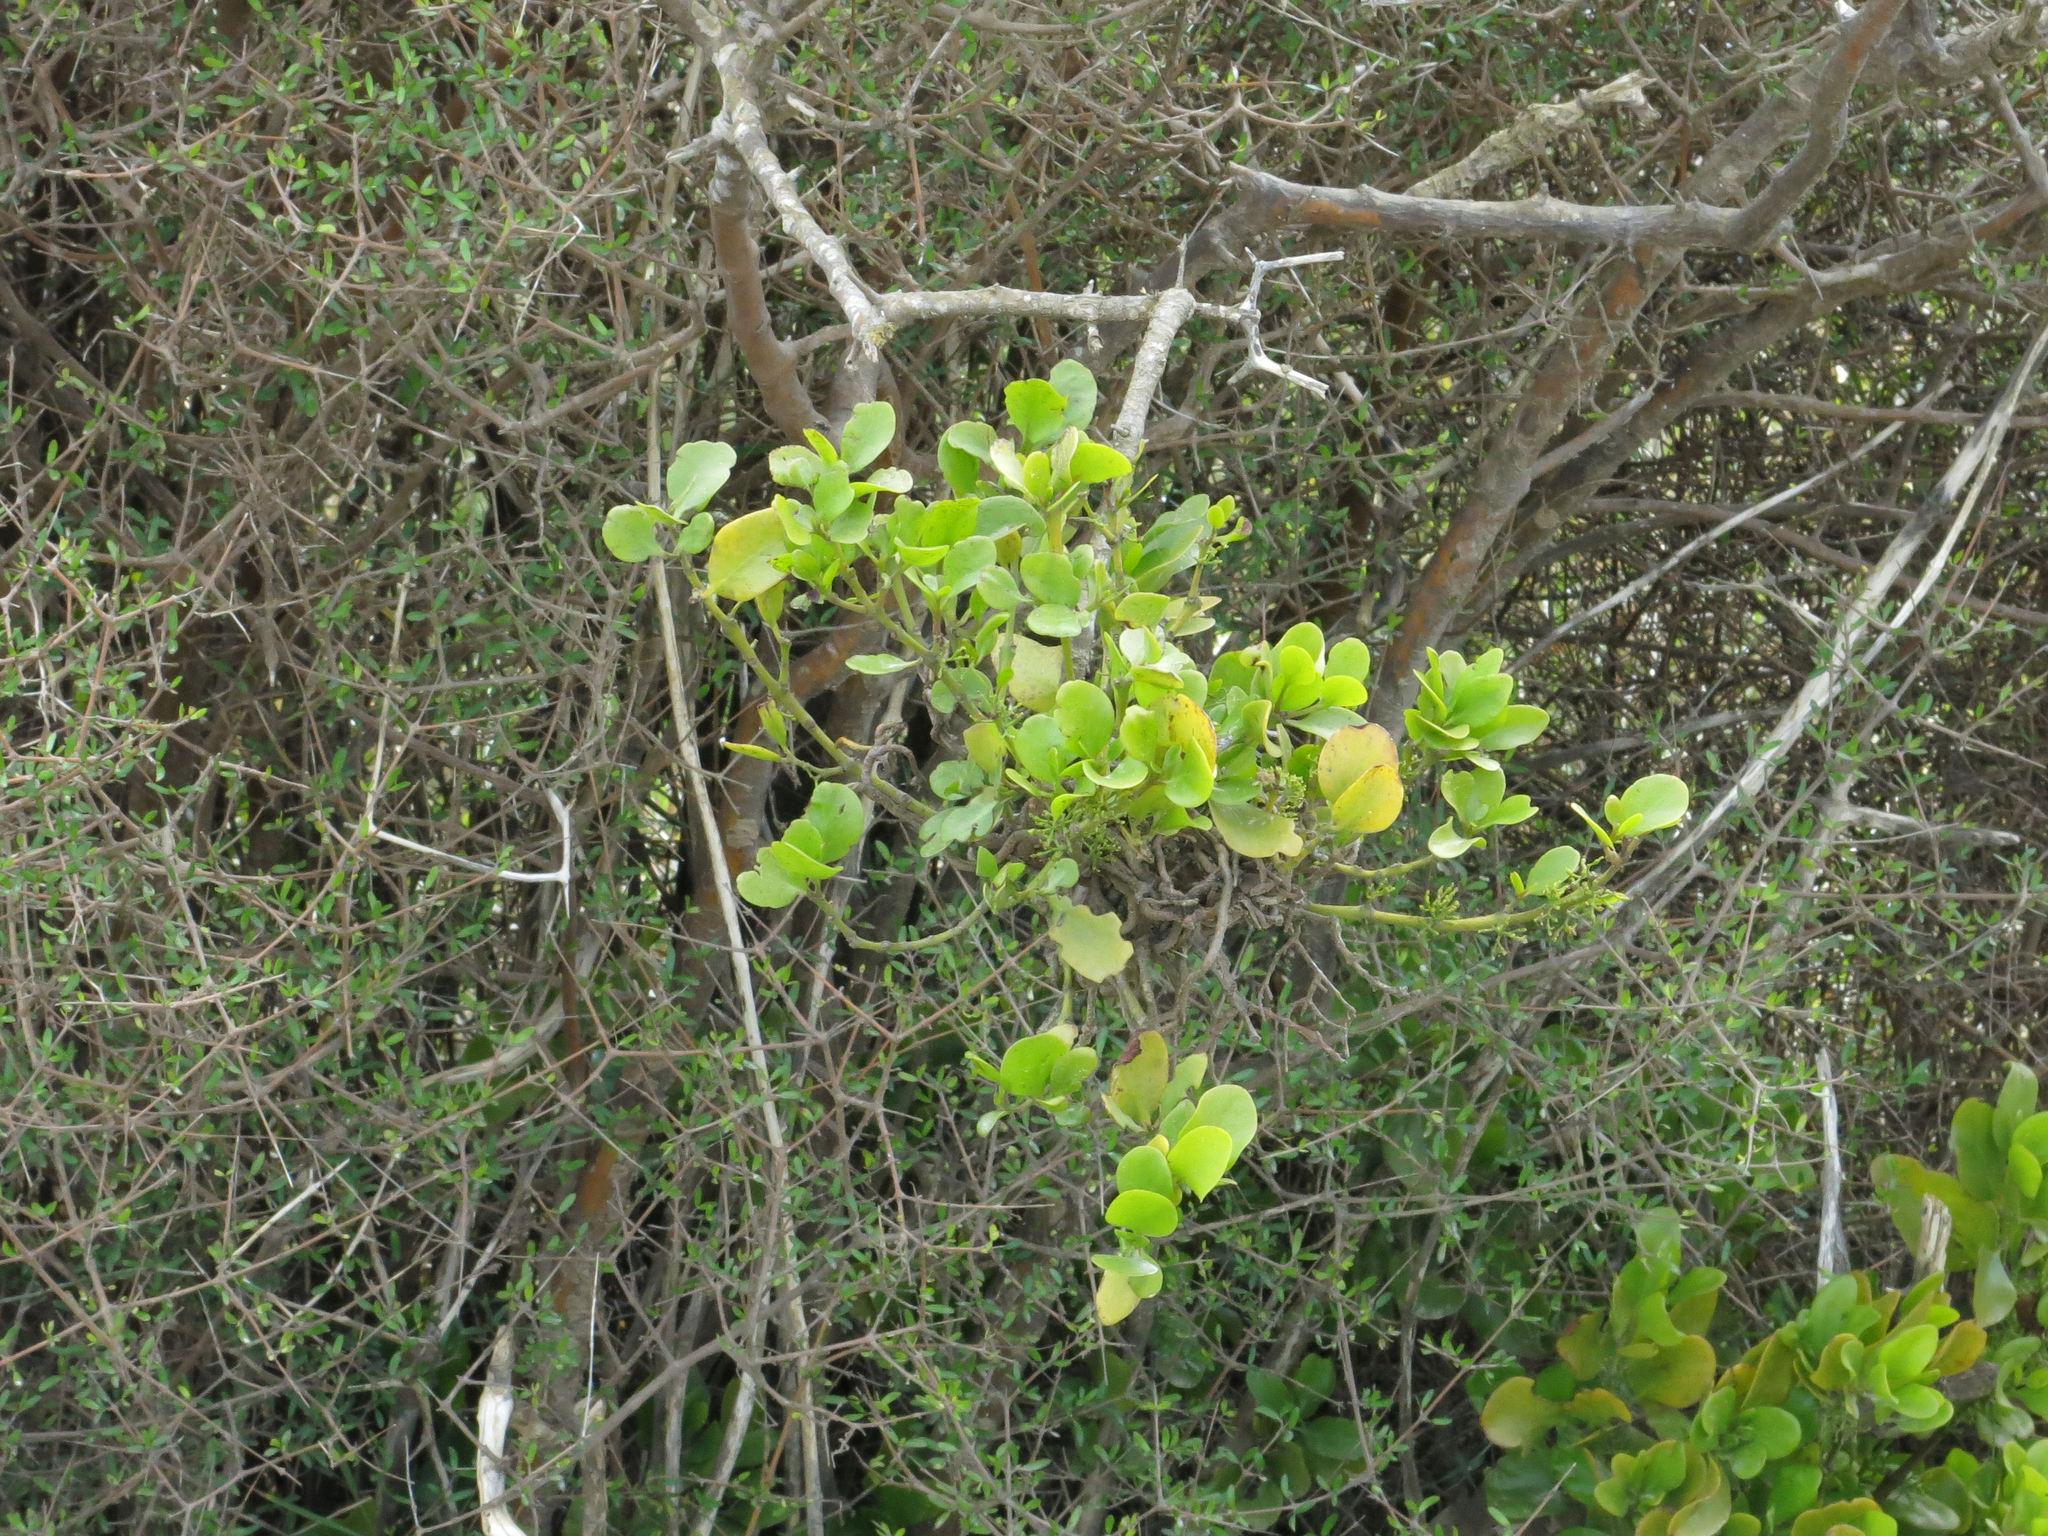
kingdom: Plantae
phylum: Tracheophyta
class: Magnoliopsida
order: Santalales
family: Loranthaceae
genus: Ileostylus
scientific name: Ileostylus micranthus
